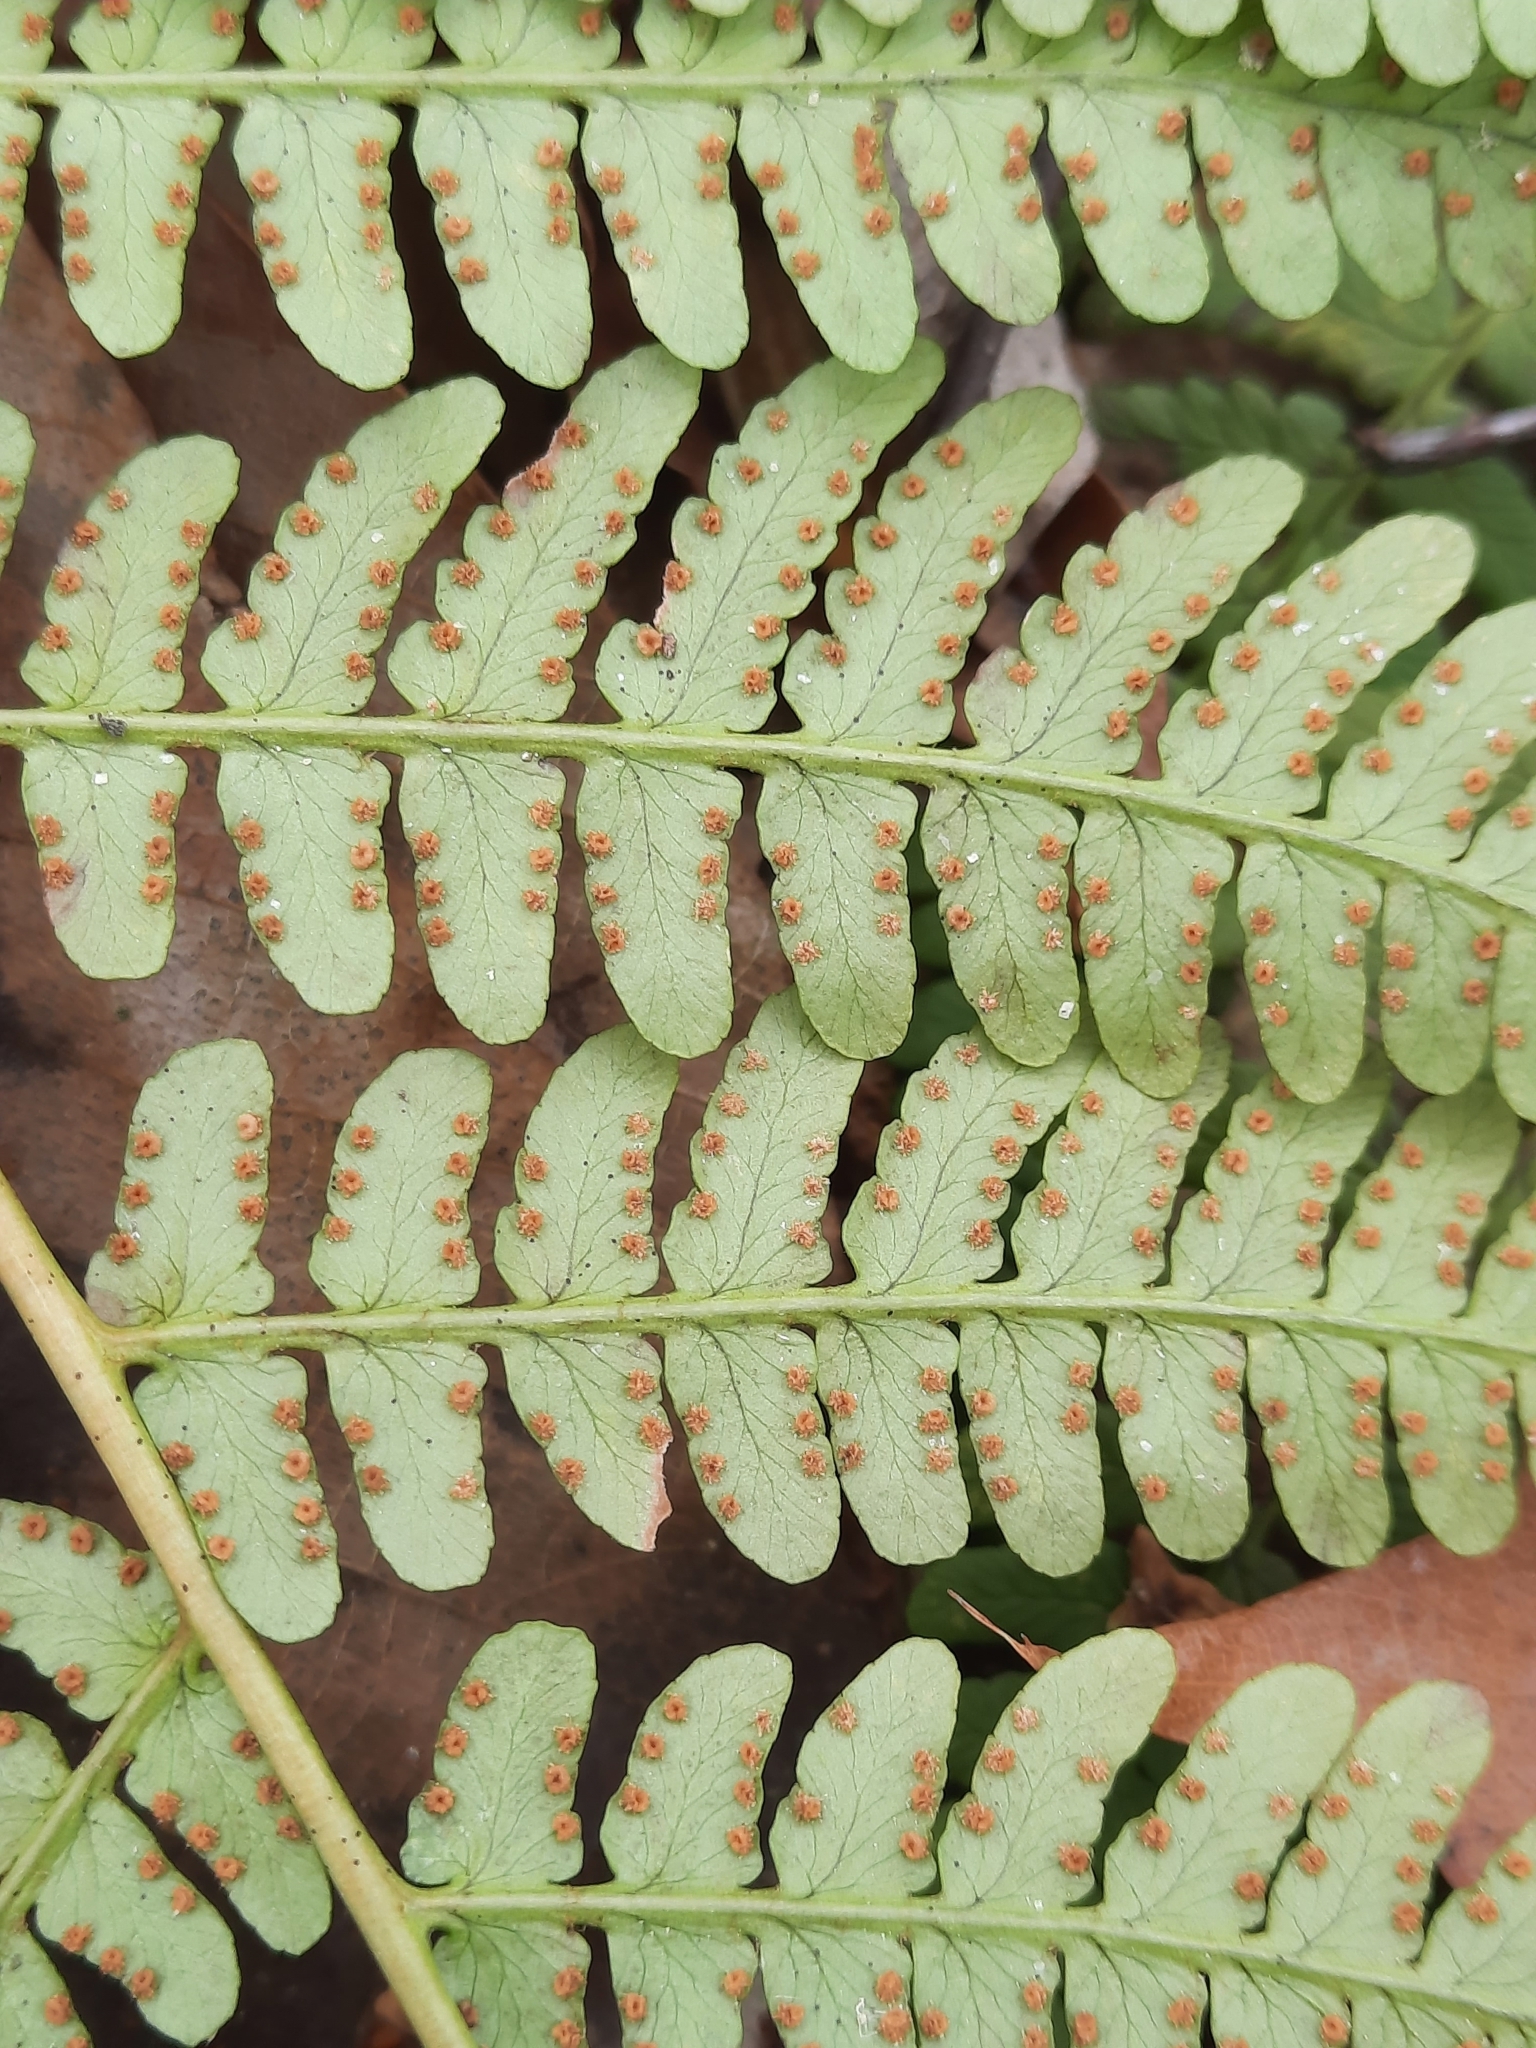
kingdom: Plantae
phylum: Tracheophyta
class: Polypodiopsida
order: Polypodiales
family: Dryopteridaceae
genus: Dryopteris
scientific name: Dryopteris marginalis
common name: Marginal wood fern
